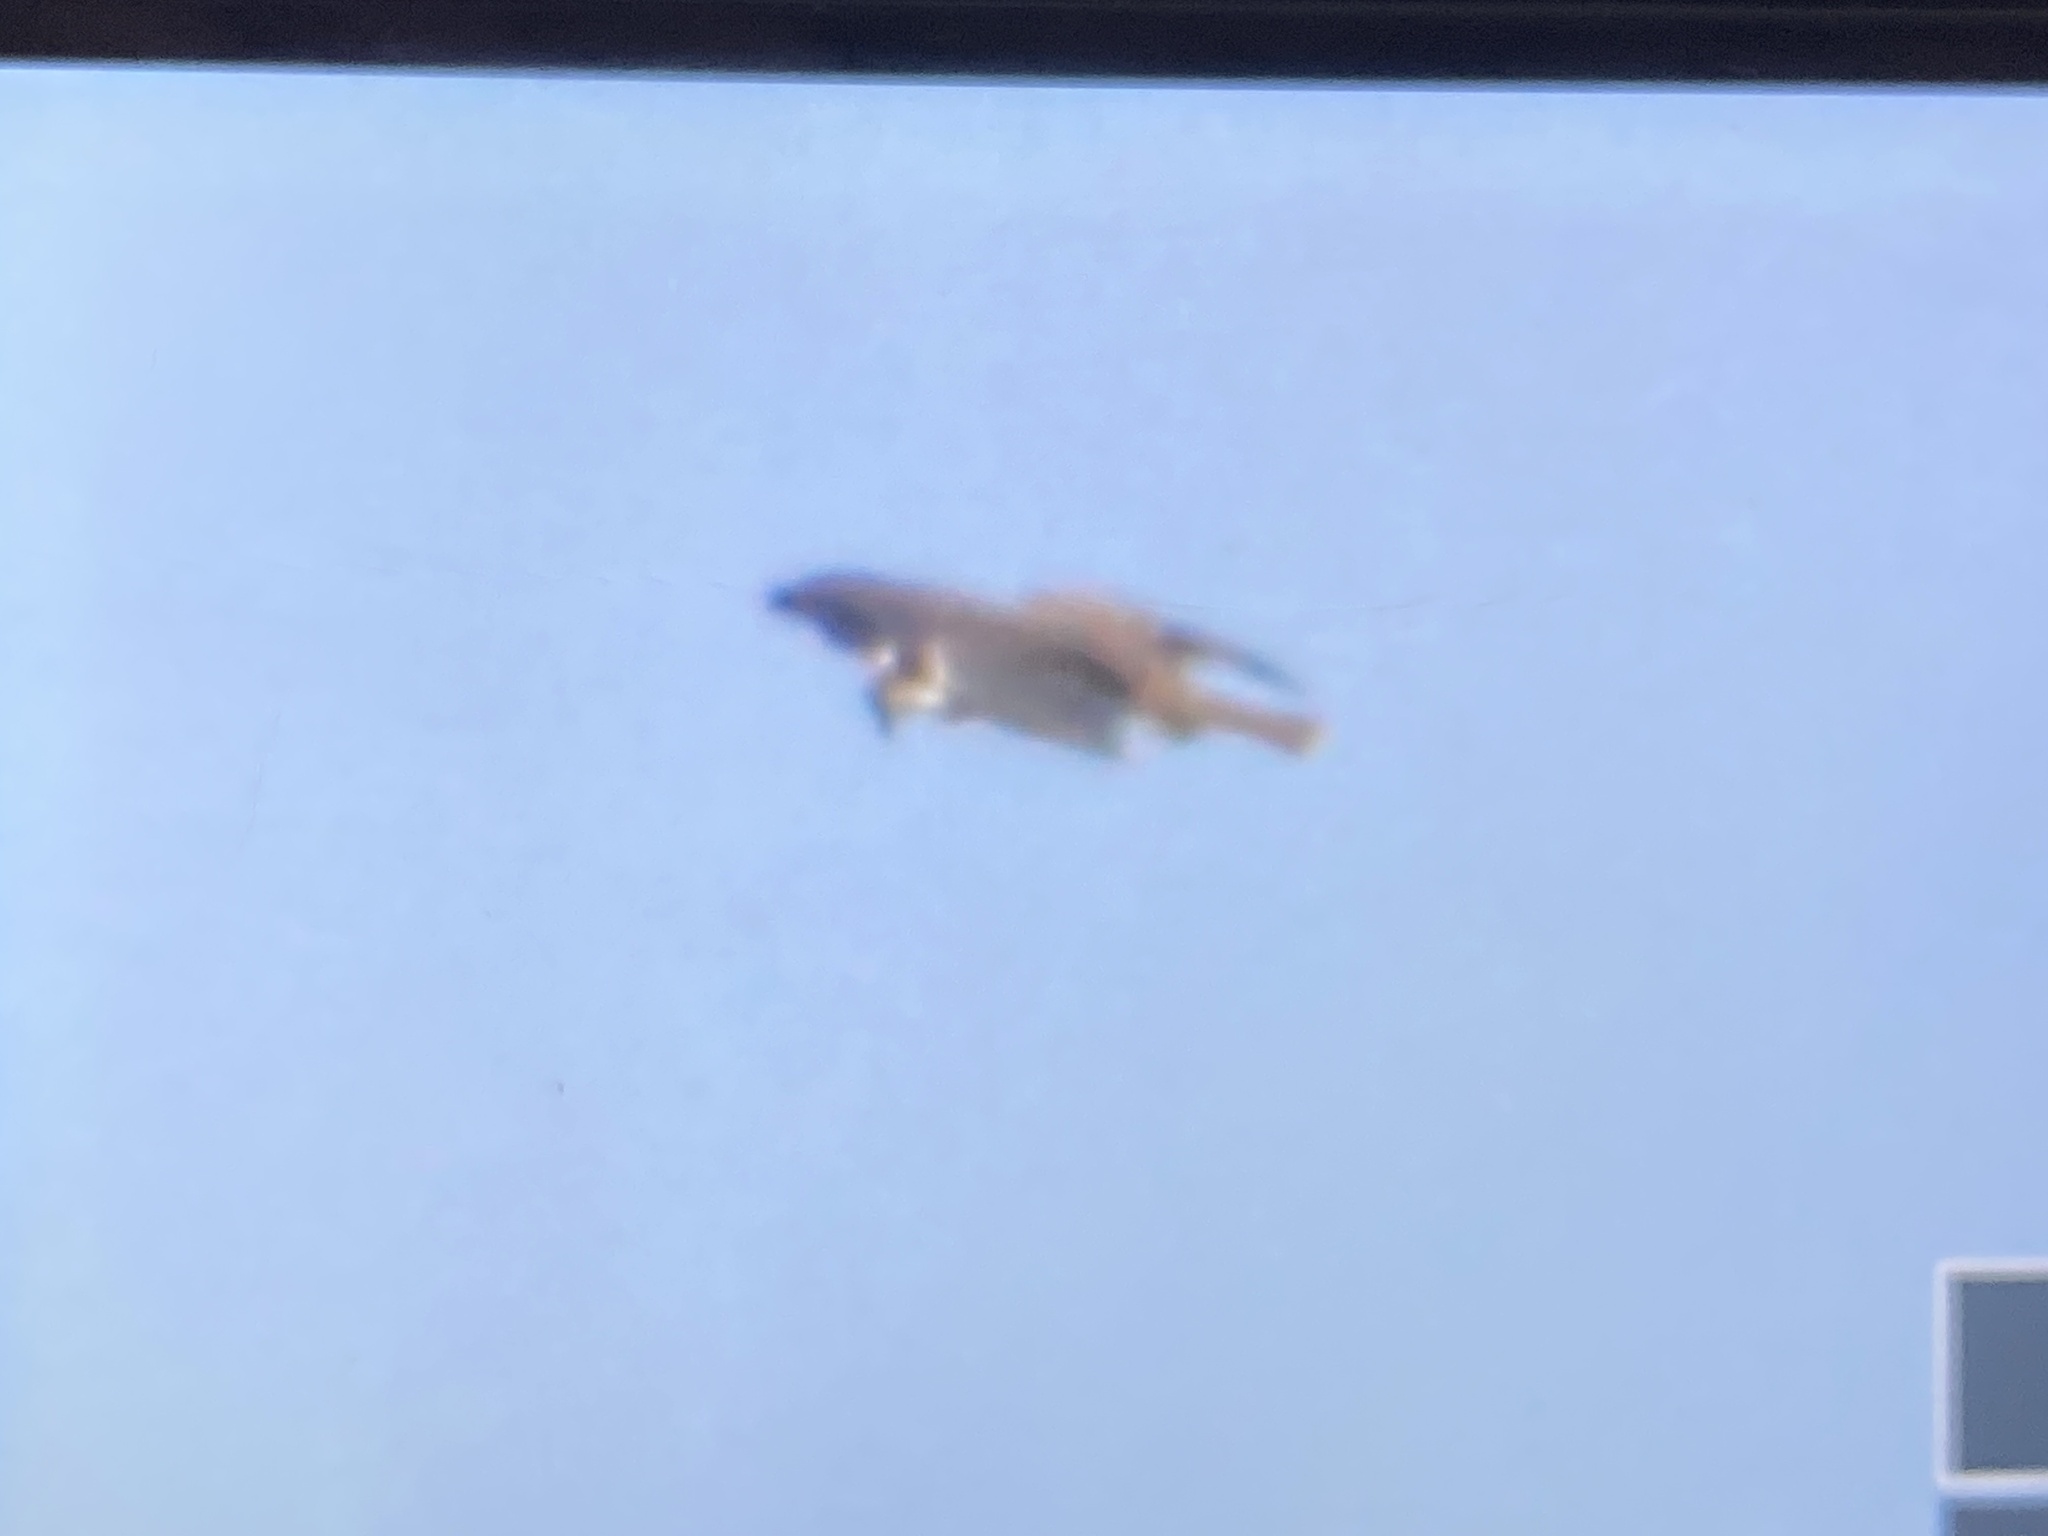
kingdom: Animalia
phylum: Chordata
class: Aves
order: Accipitriformes
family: Pandionidae
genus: Pandion
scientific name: Pandion haliaetus
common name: Osprey
